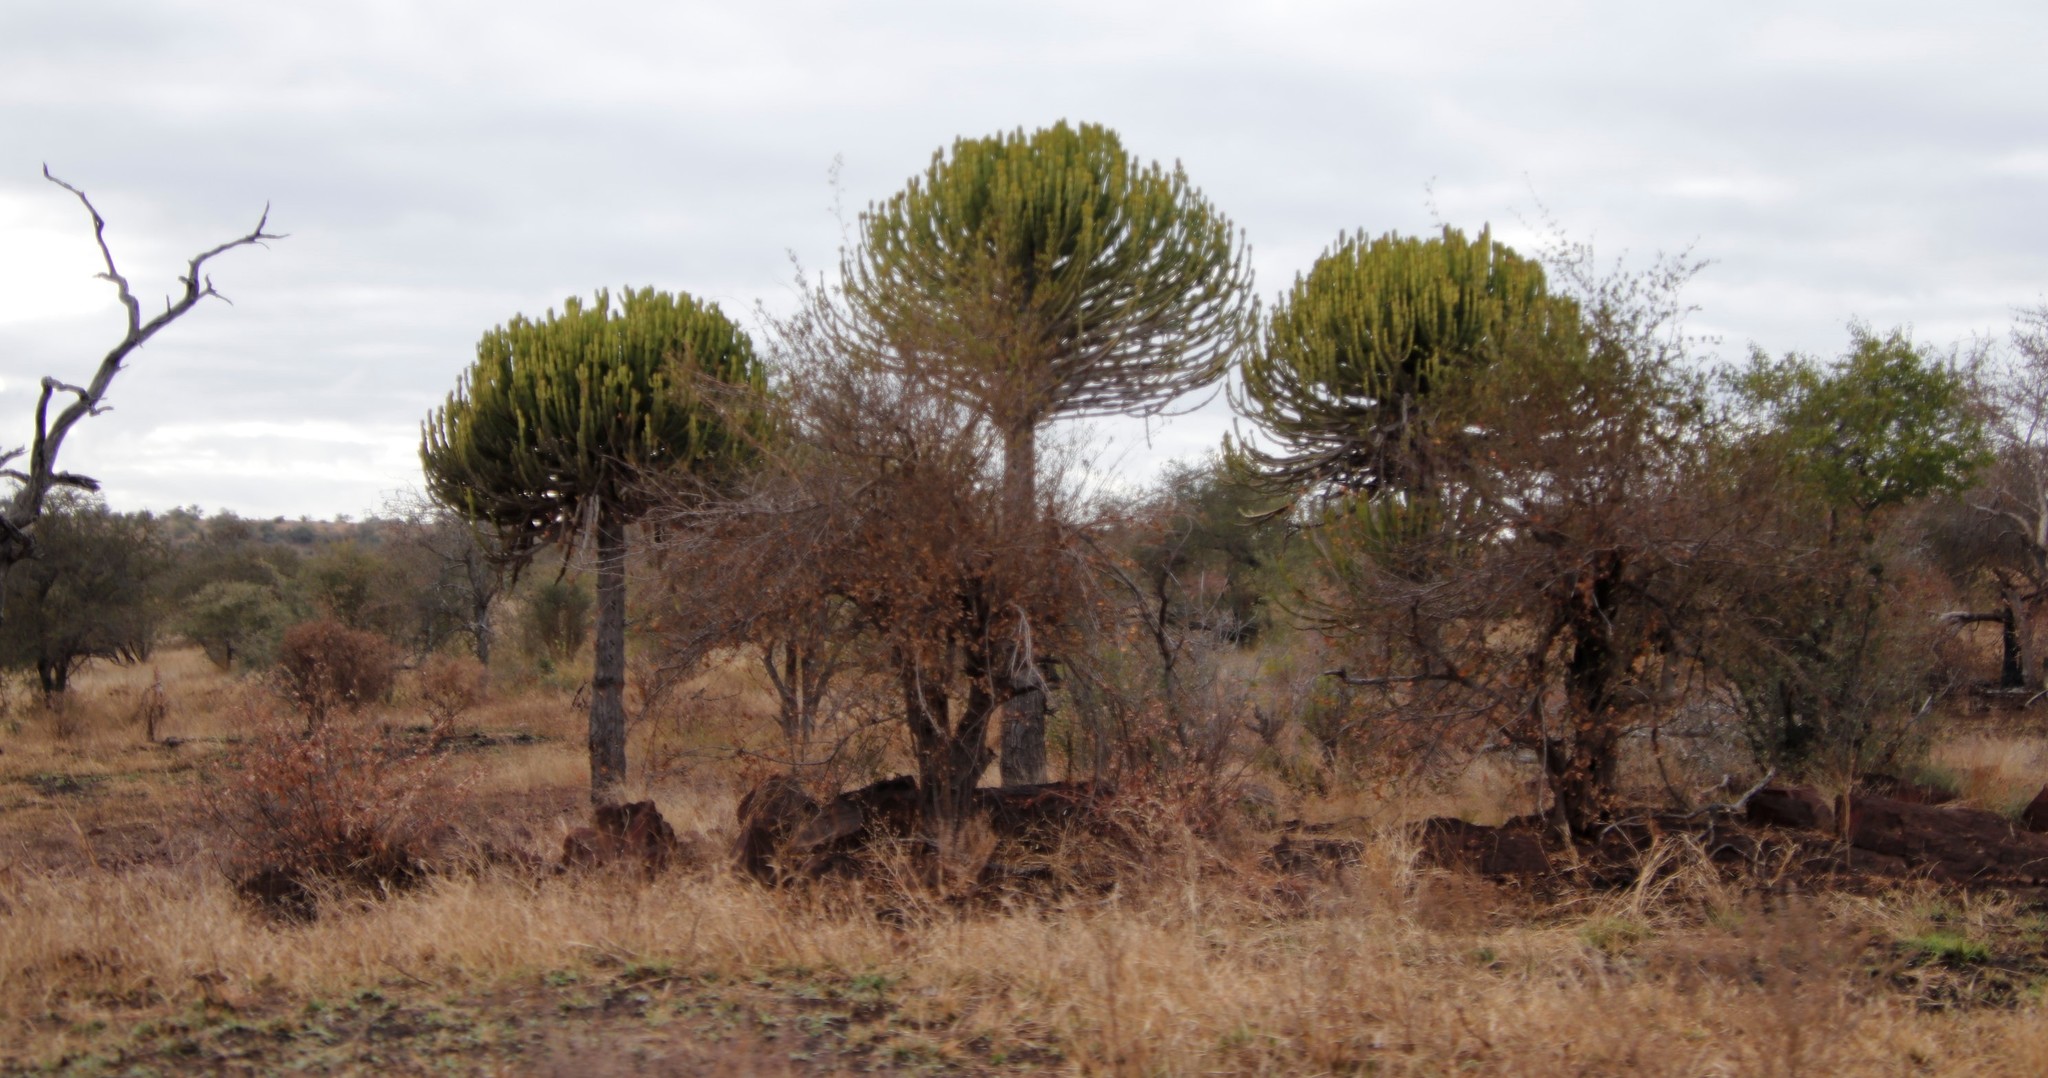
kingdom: Plantae
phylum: Tracheophyta
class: Magnoliopsida
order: Malpighiales
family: Euphorbiaceae
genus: Euphorbia
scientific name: Euphorbia confinalis
